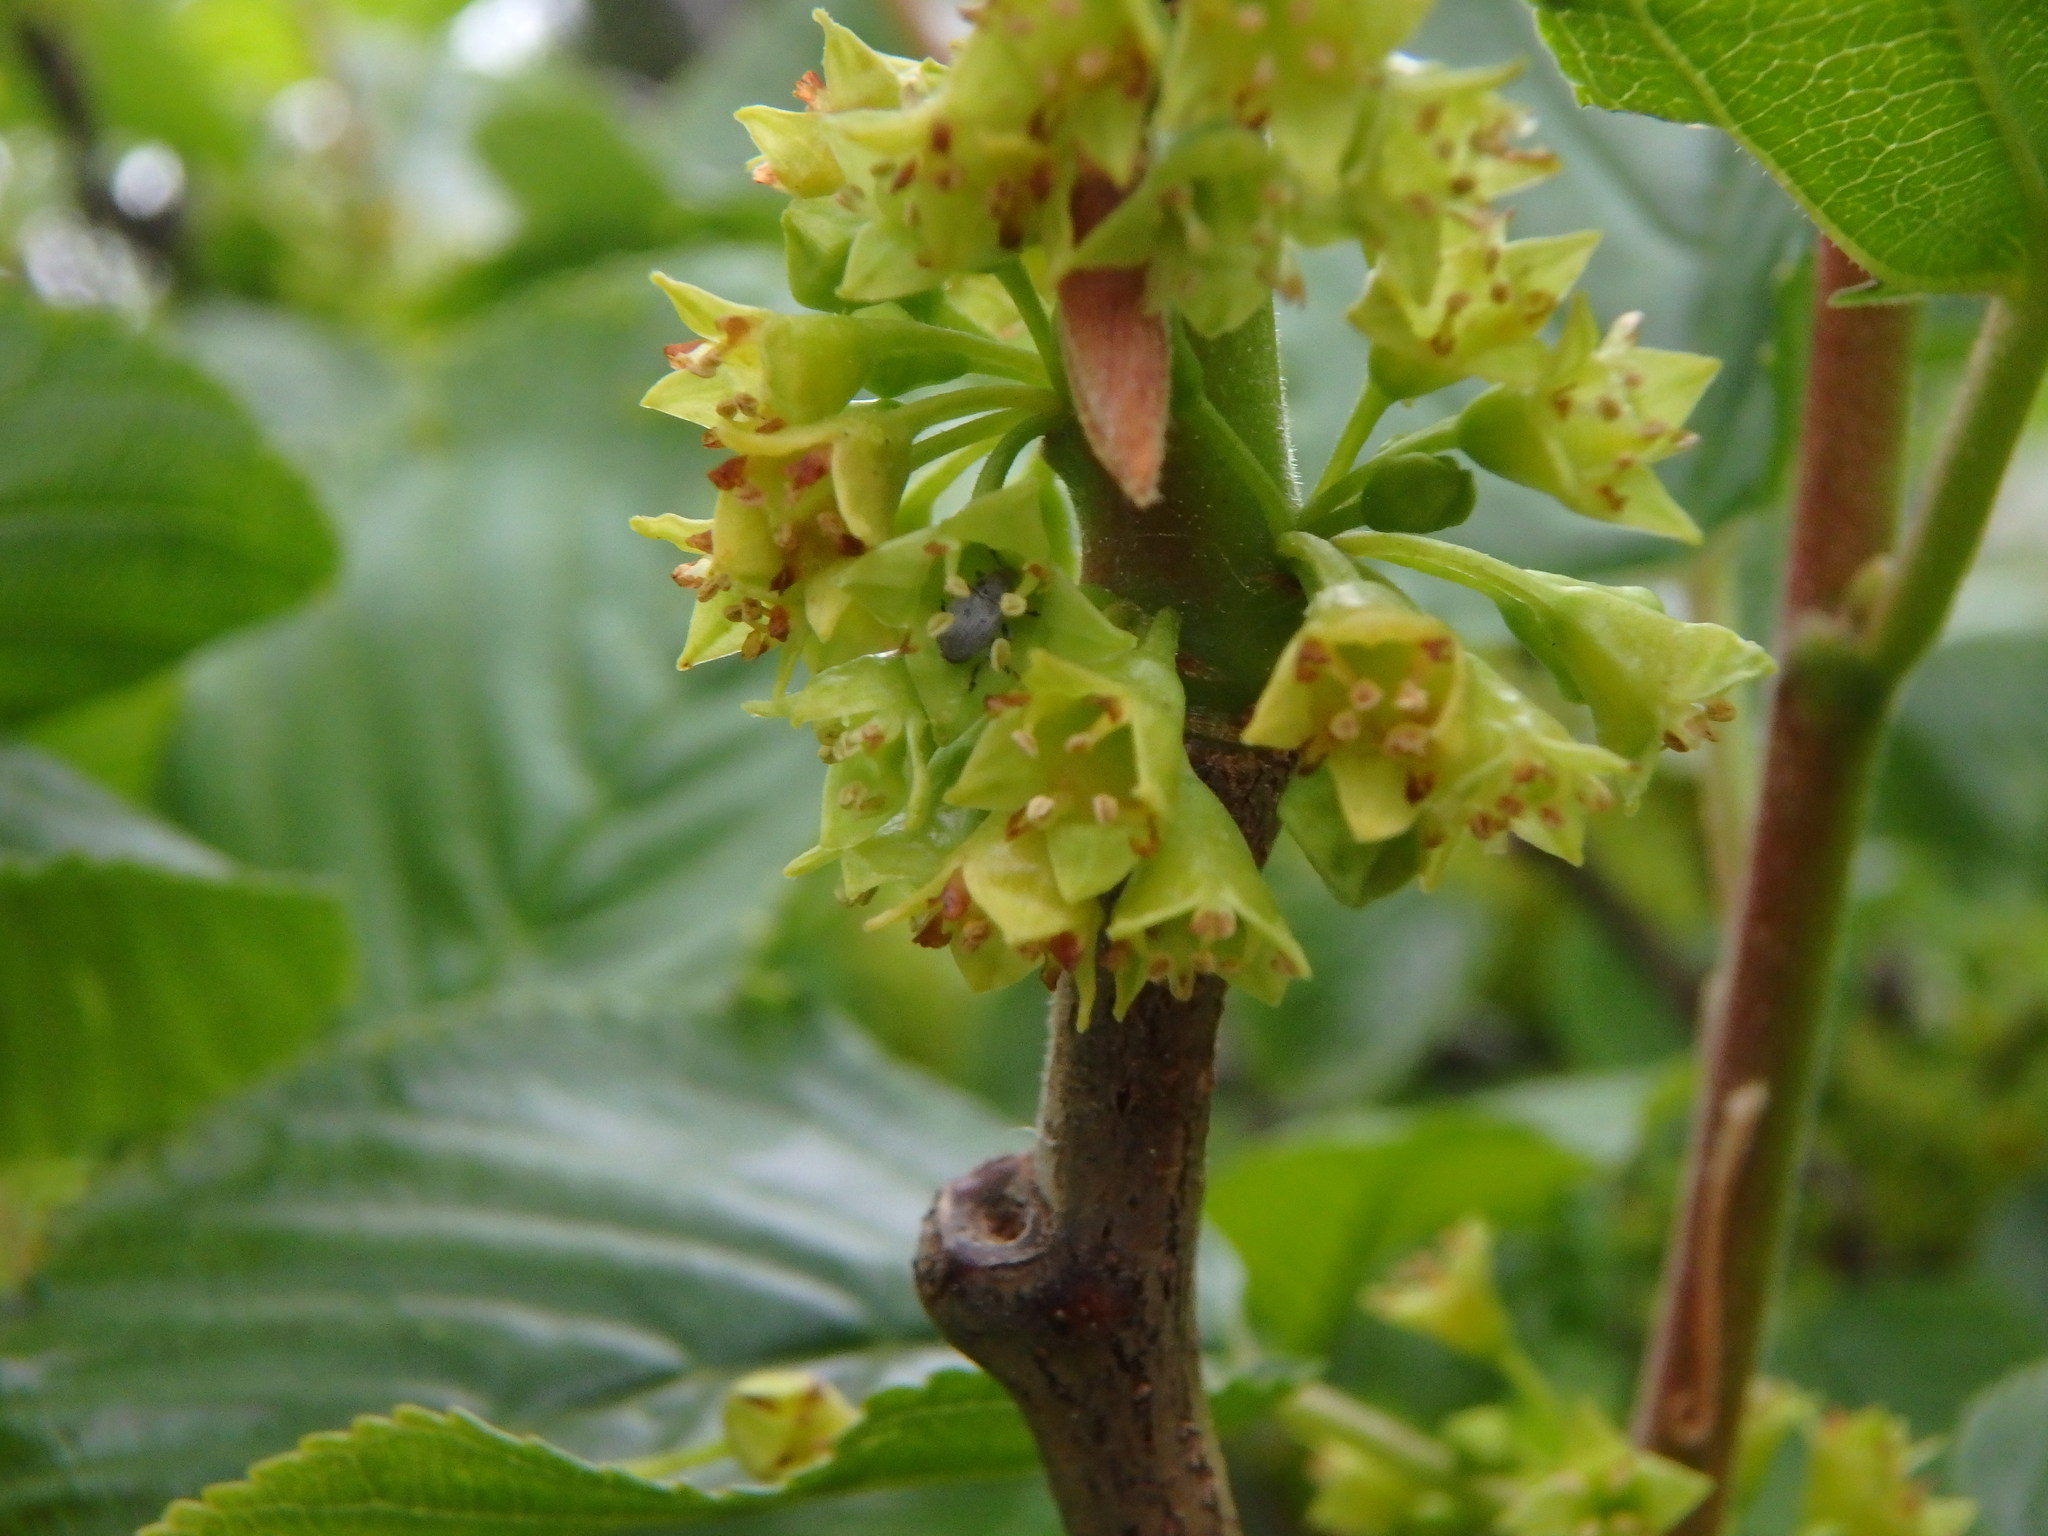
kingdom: Plantae
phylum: Tracheophyta
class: Magnoliopsida
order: Rosales
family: Rhamnaceae
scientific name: Rhamnaceae
